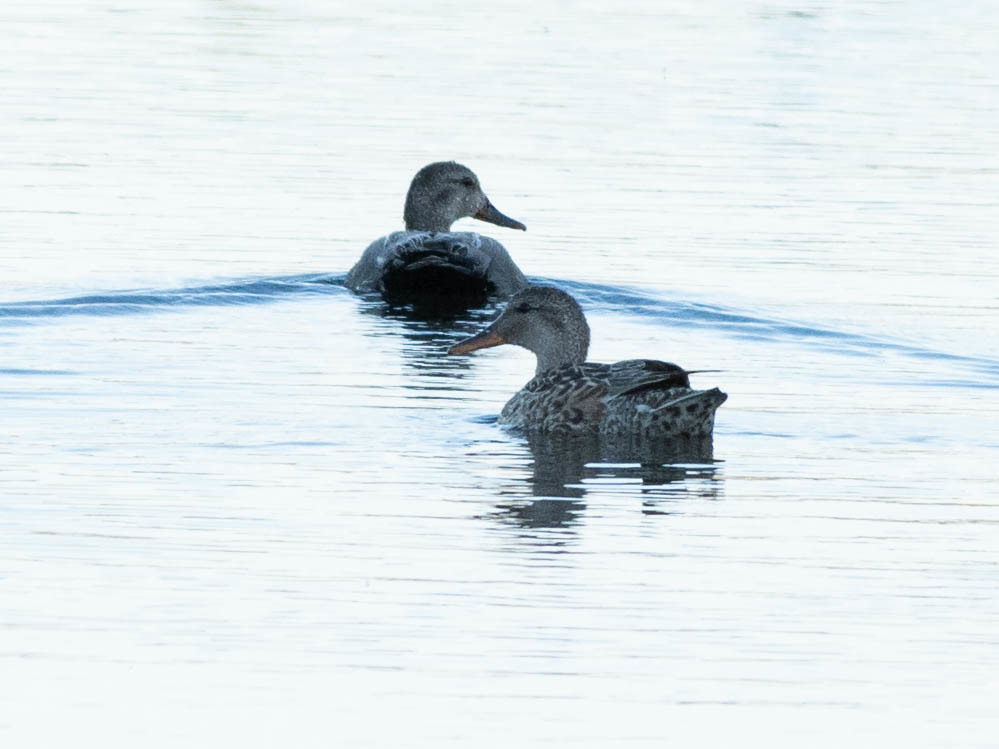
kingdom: Animalia
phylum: Chordata
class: Aves
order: Anseriformes
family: Anatidae
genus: Mareca
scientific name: Mareca strepera
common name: Gadwall
